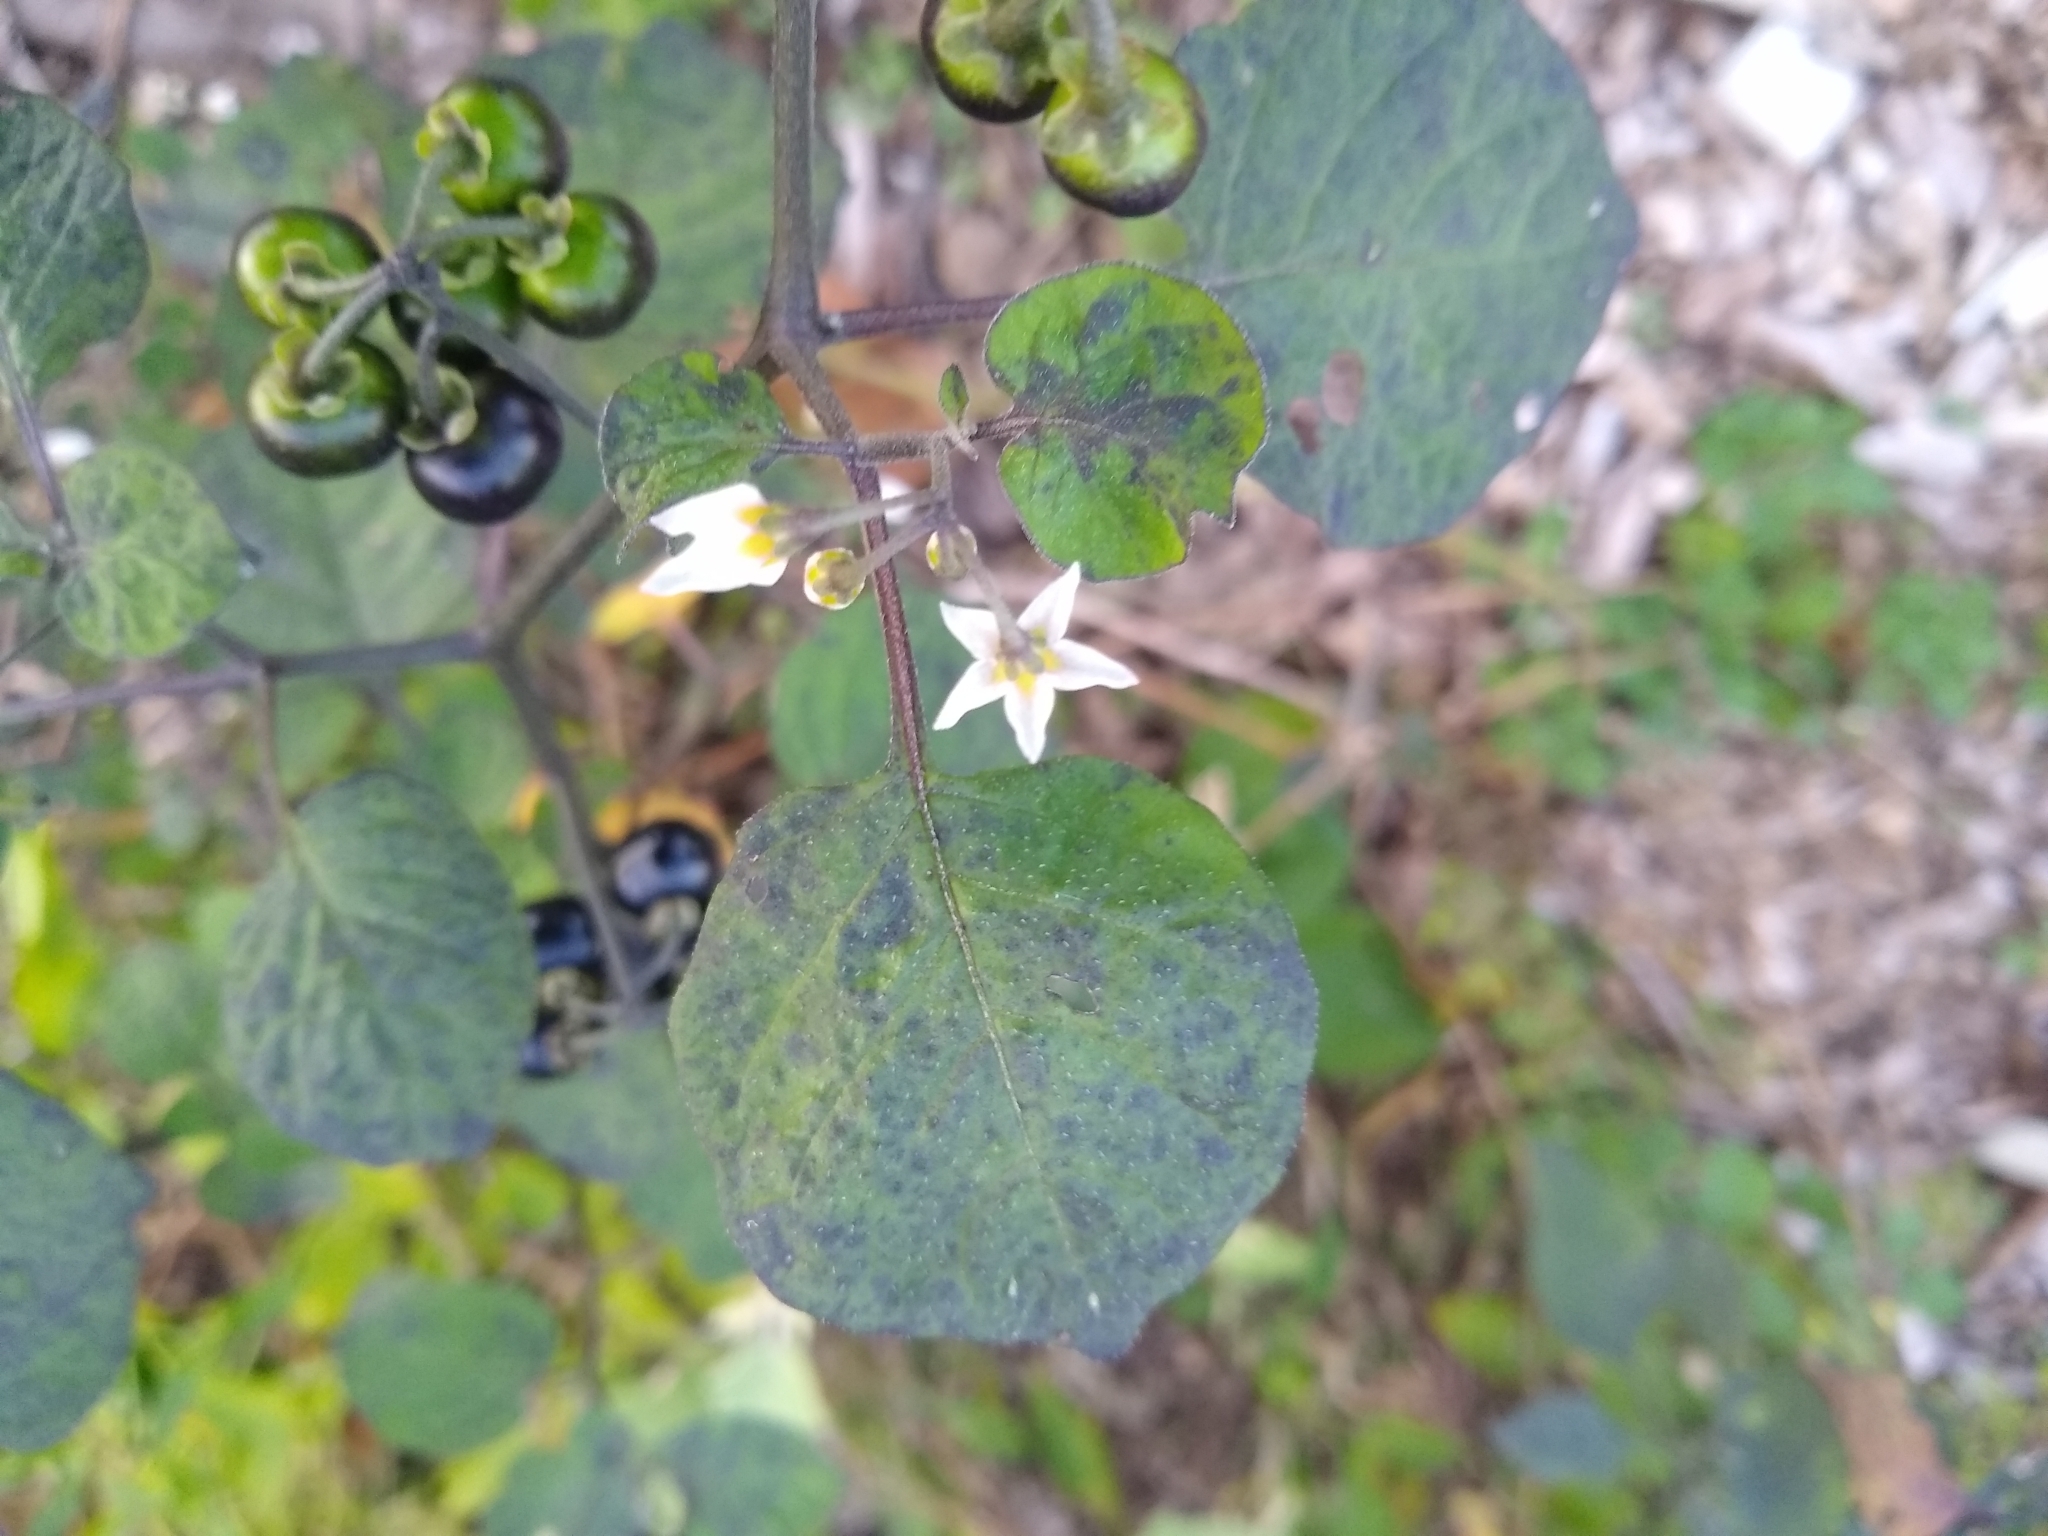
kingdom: Plantae
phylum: Tracheophyta
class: Magnoliopsida
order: Solanales
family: Solanaceae
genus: Solanum
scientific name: Solanum nigrum
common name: Black nightshade
